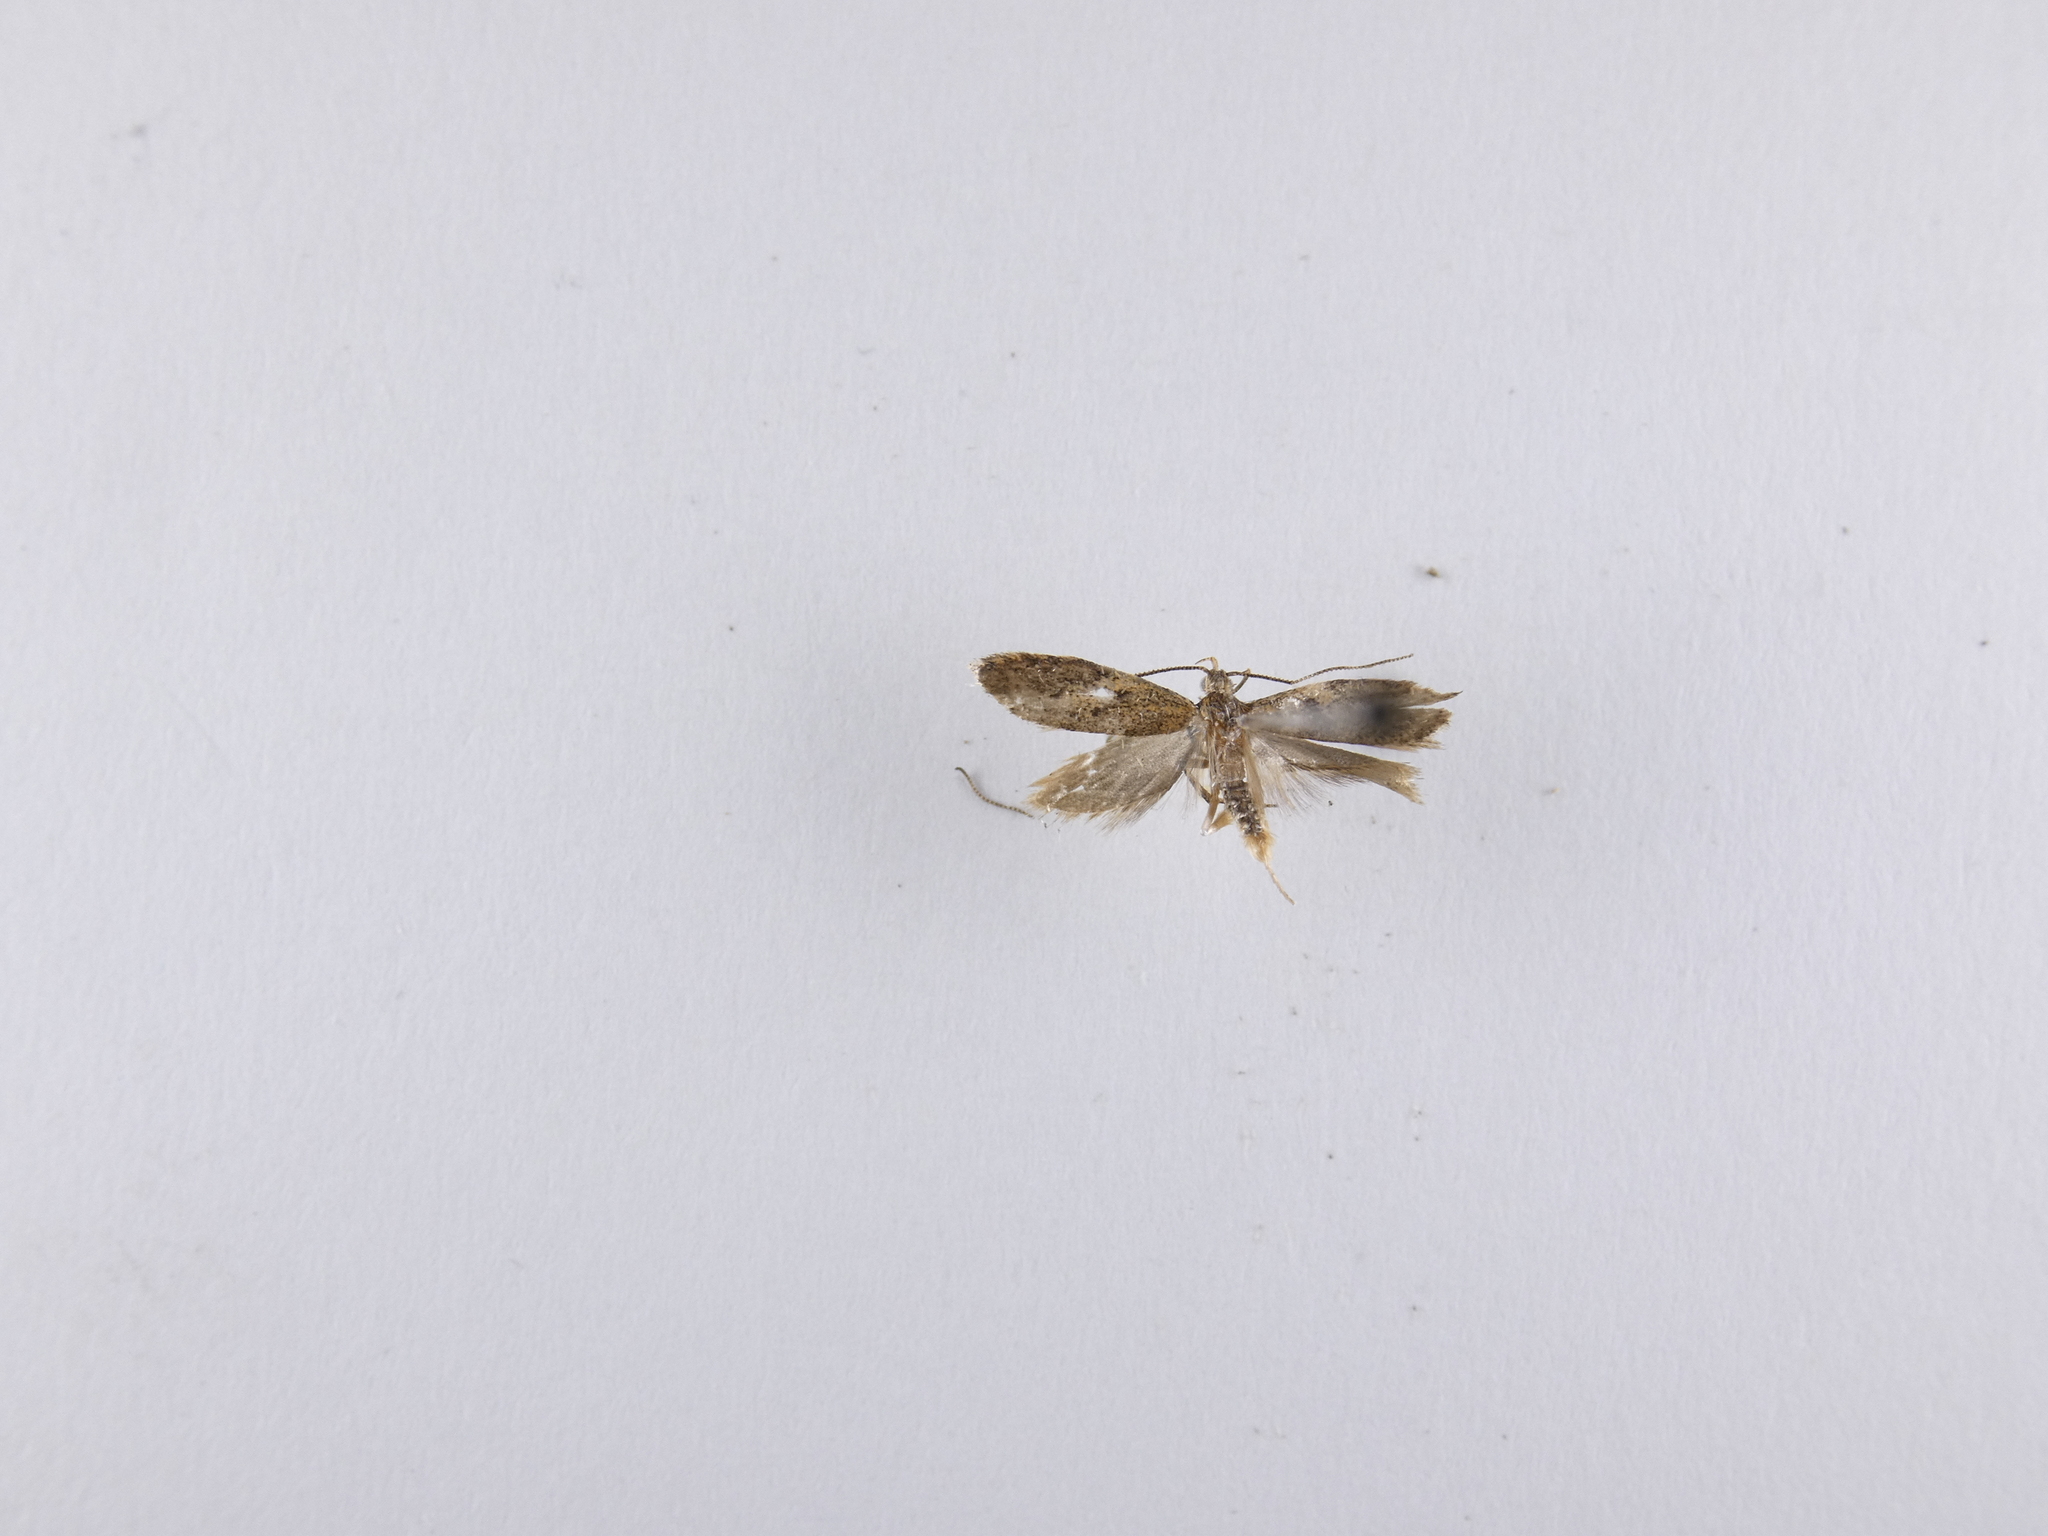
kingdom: Animalia
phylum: Arthropoda
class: Insecta
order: Lepidoptera
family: Oecophoridae
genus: Gymnobathra
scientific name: Gymnobathra tholodella
